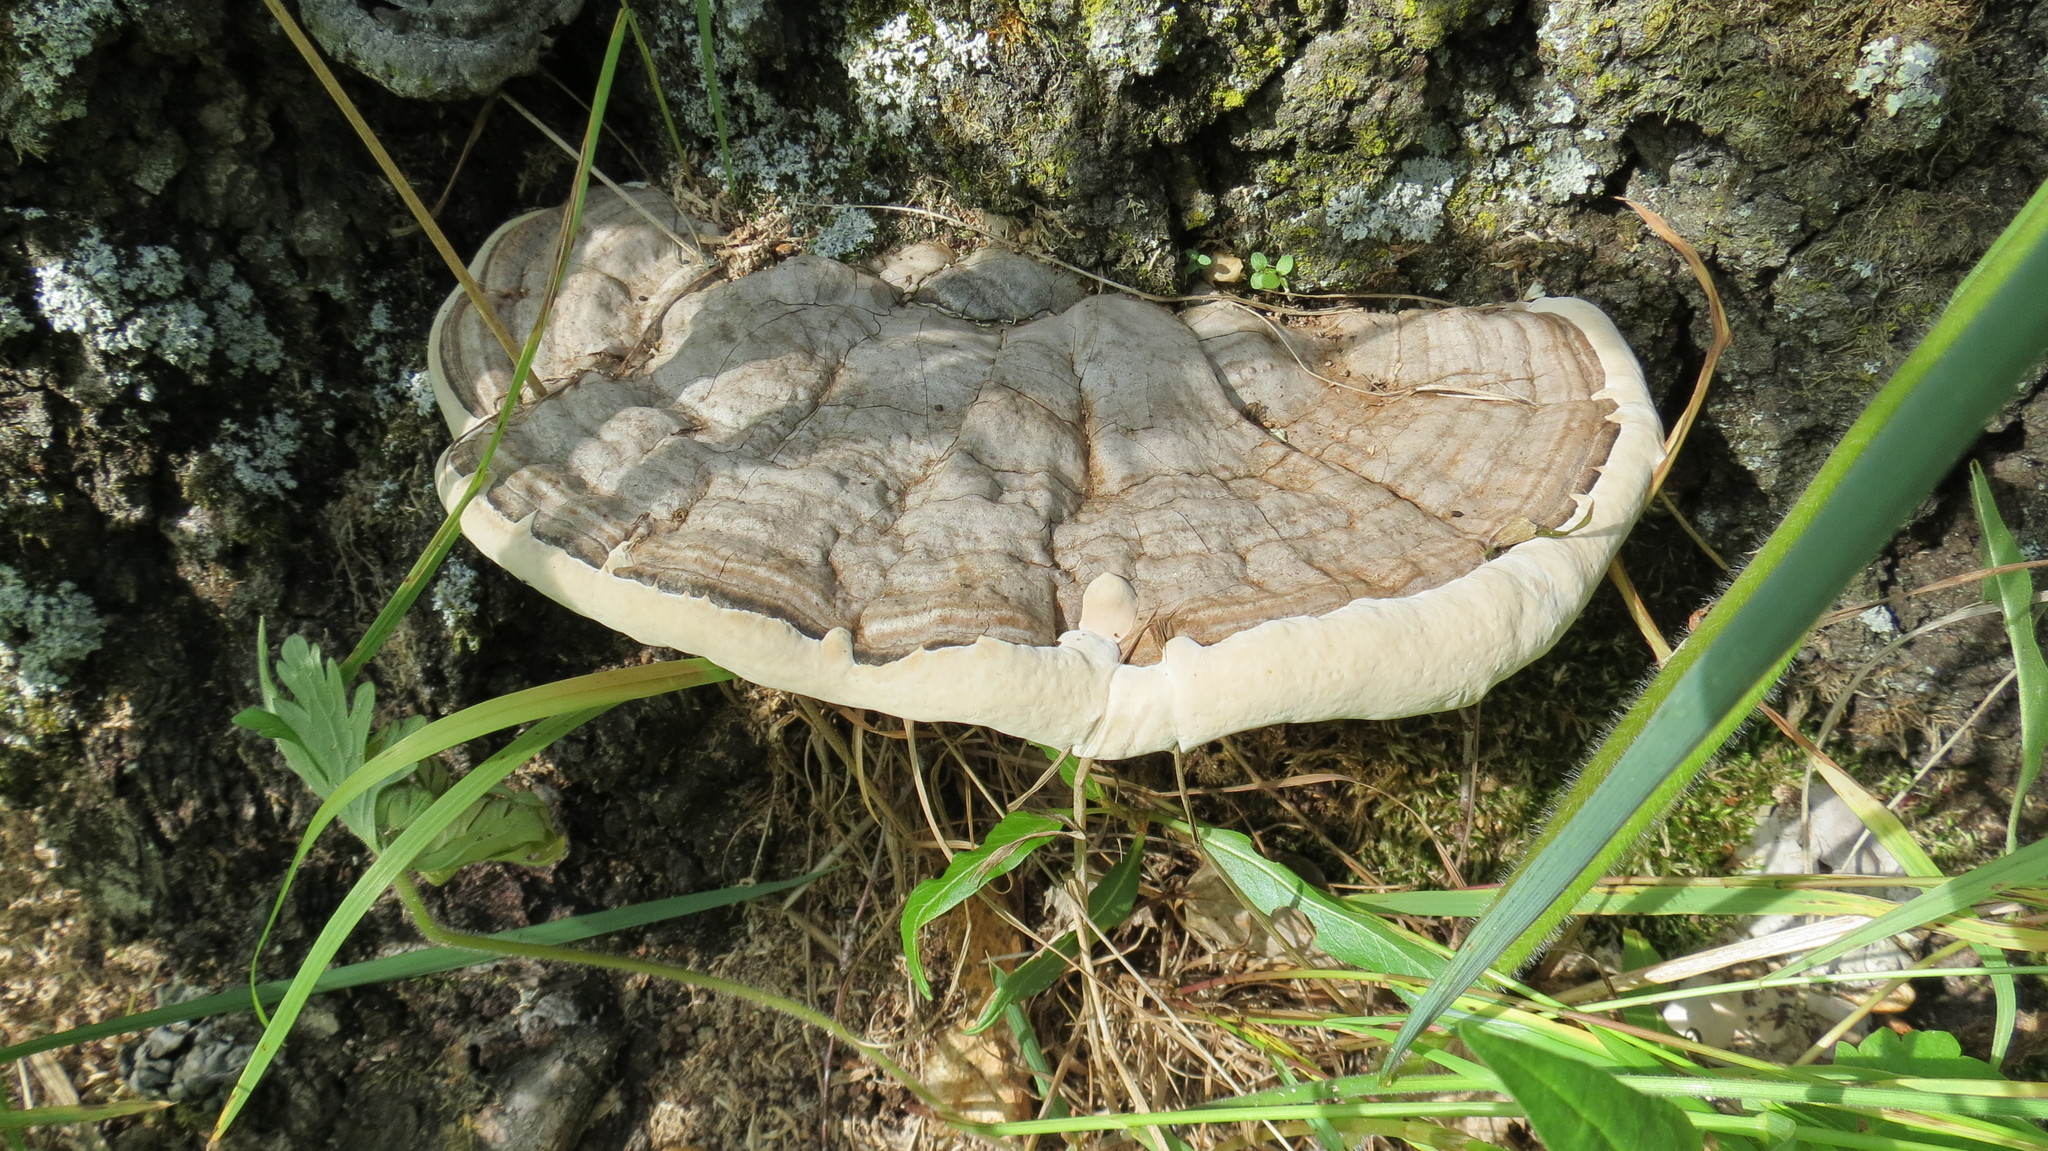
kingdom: Fungi
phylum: Basidiomycota
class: Agaricomycetes
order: Polyporales
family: Polyporaceae
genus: Ganoderma
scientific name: Ganoderma applanatum
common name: Artist's bracket
